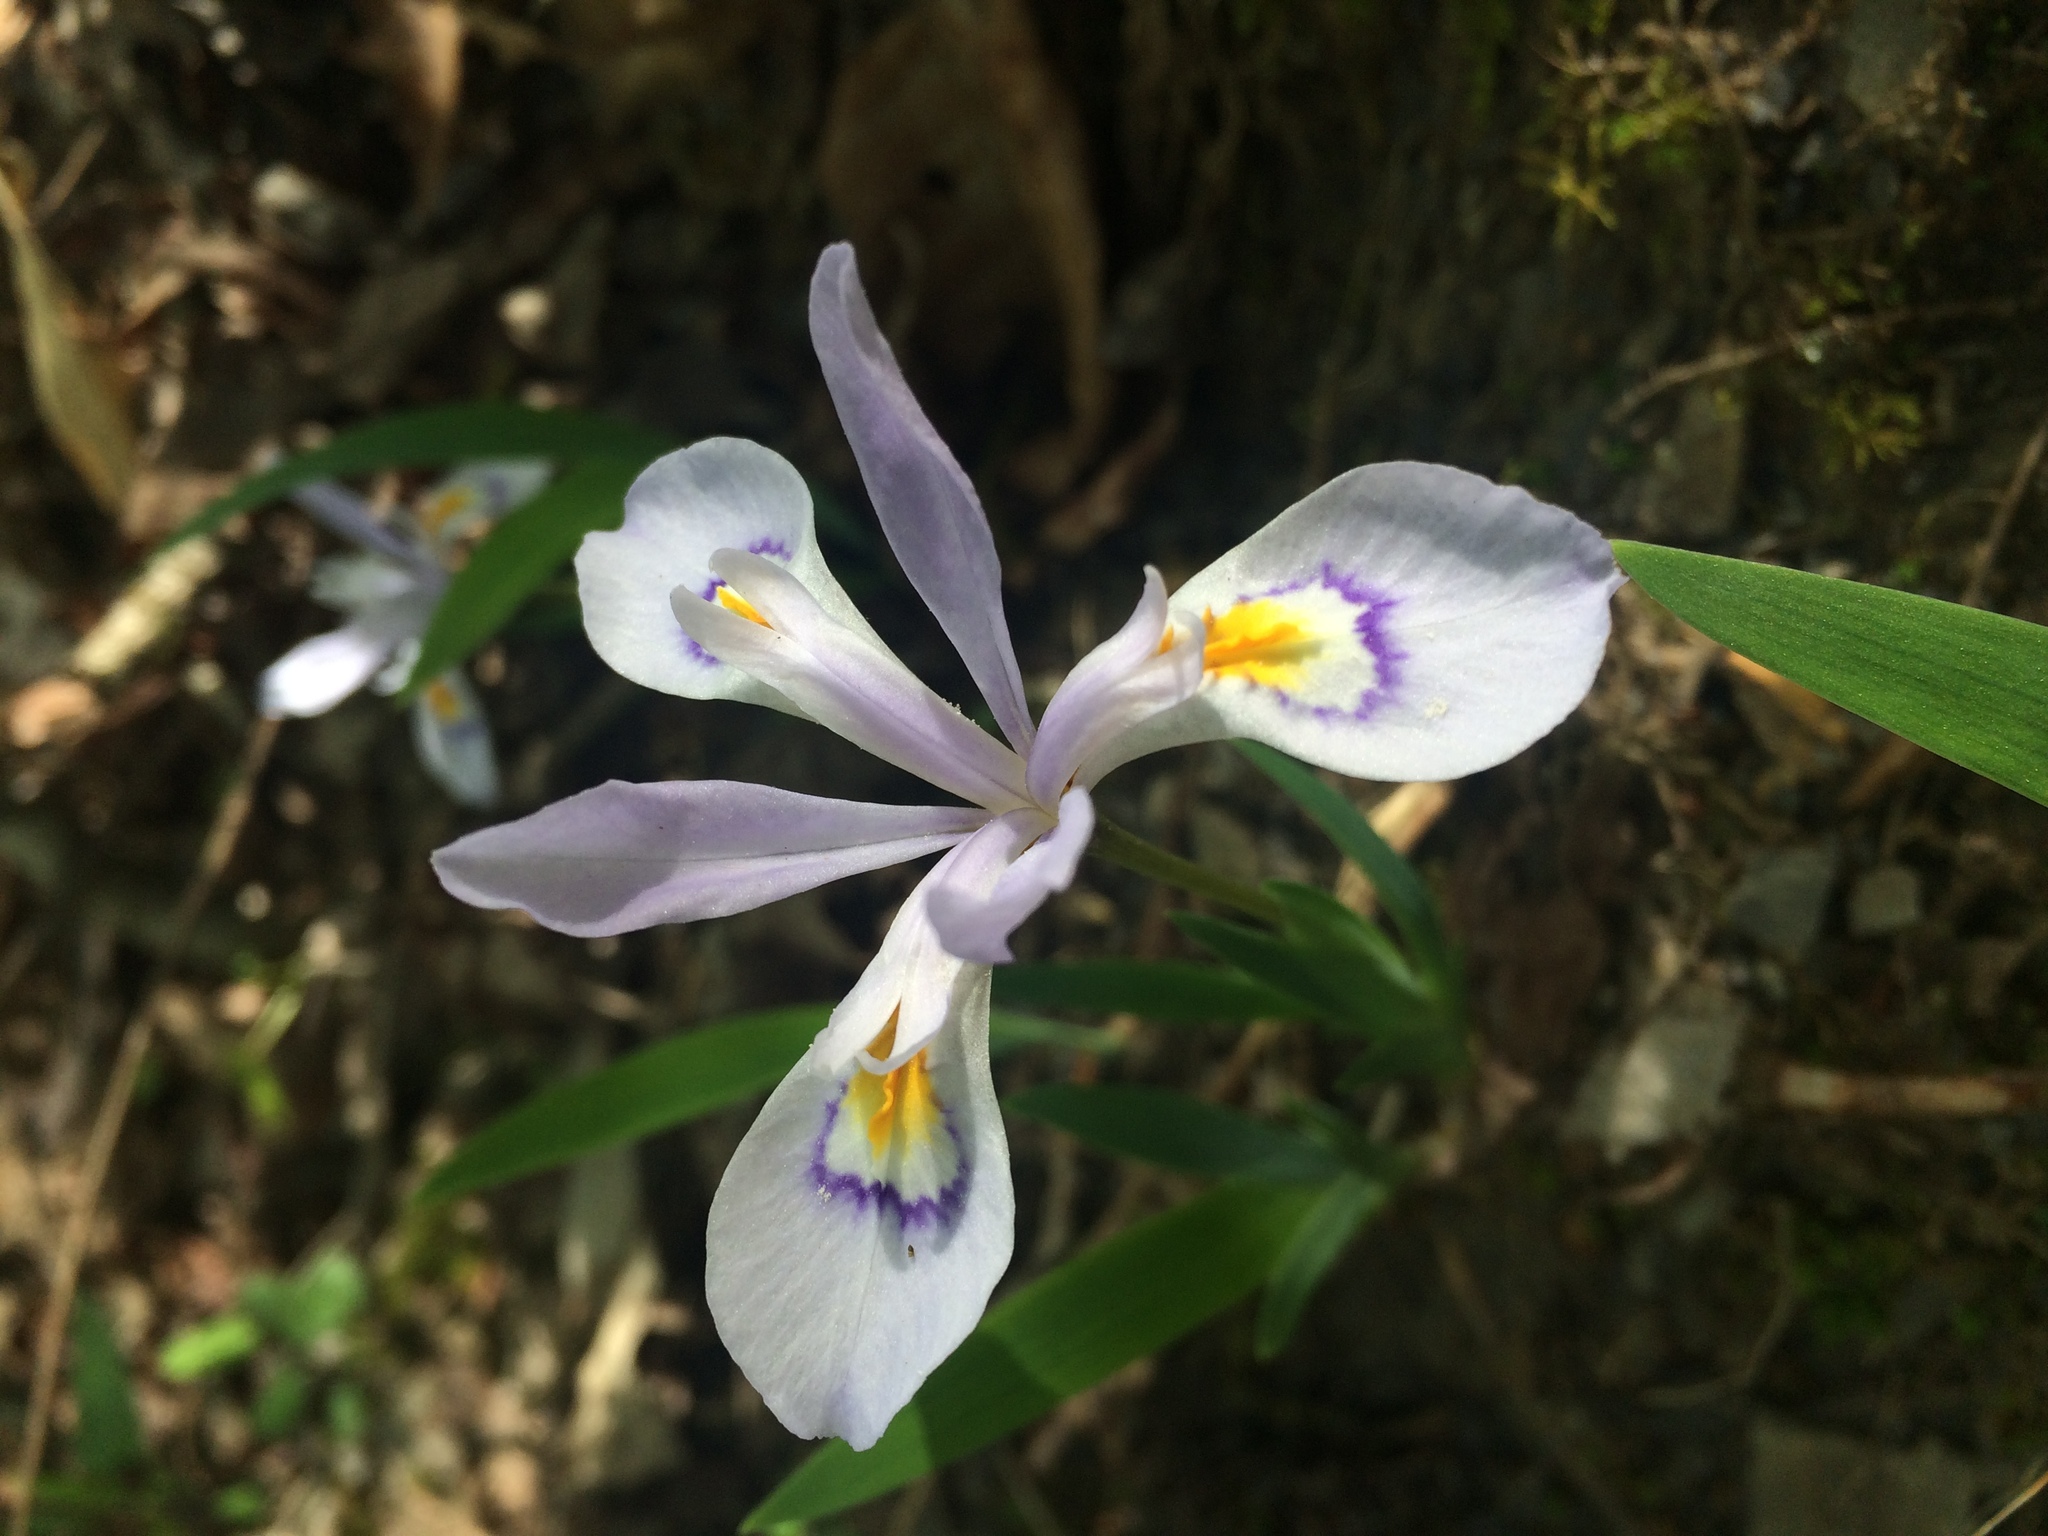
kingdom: Plantae
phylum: Tracheophyta
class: Liliopsida
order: Asparagales
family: Iridaceae
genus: Iris
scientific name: Iris cristata
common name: Crested iris
